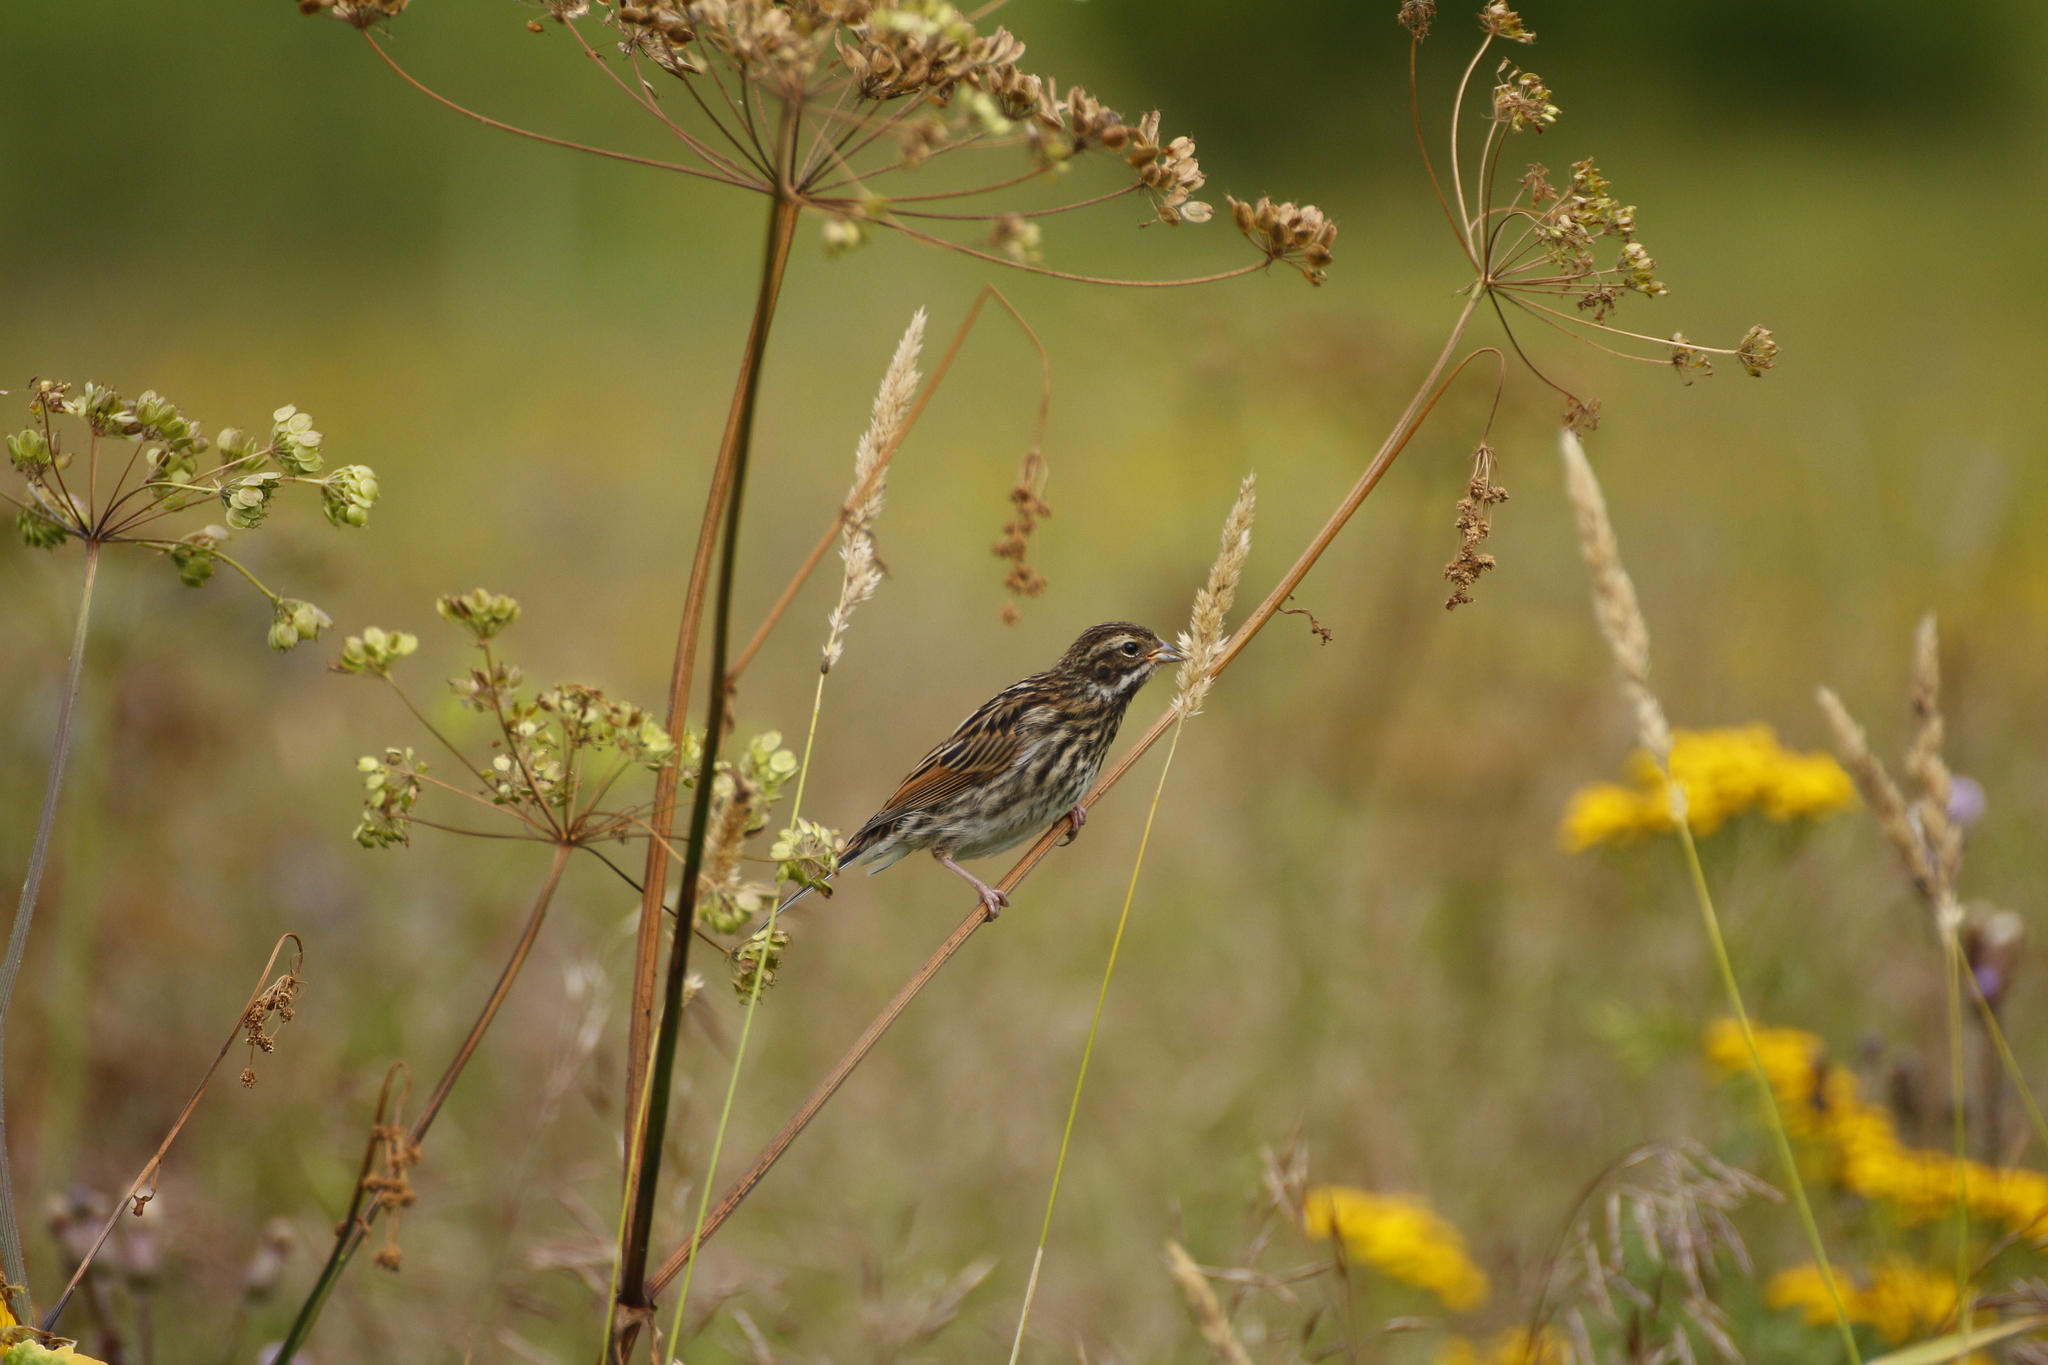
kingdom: Animalia
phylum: Chordata
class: Aves
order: Passeriformes
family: Emberizidae
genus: Emberiza
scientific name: Emberiza schoeniclus
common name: Reed bunting
